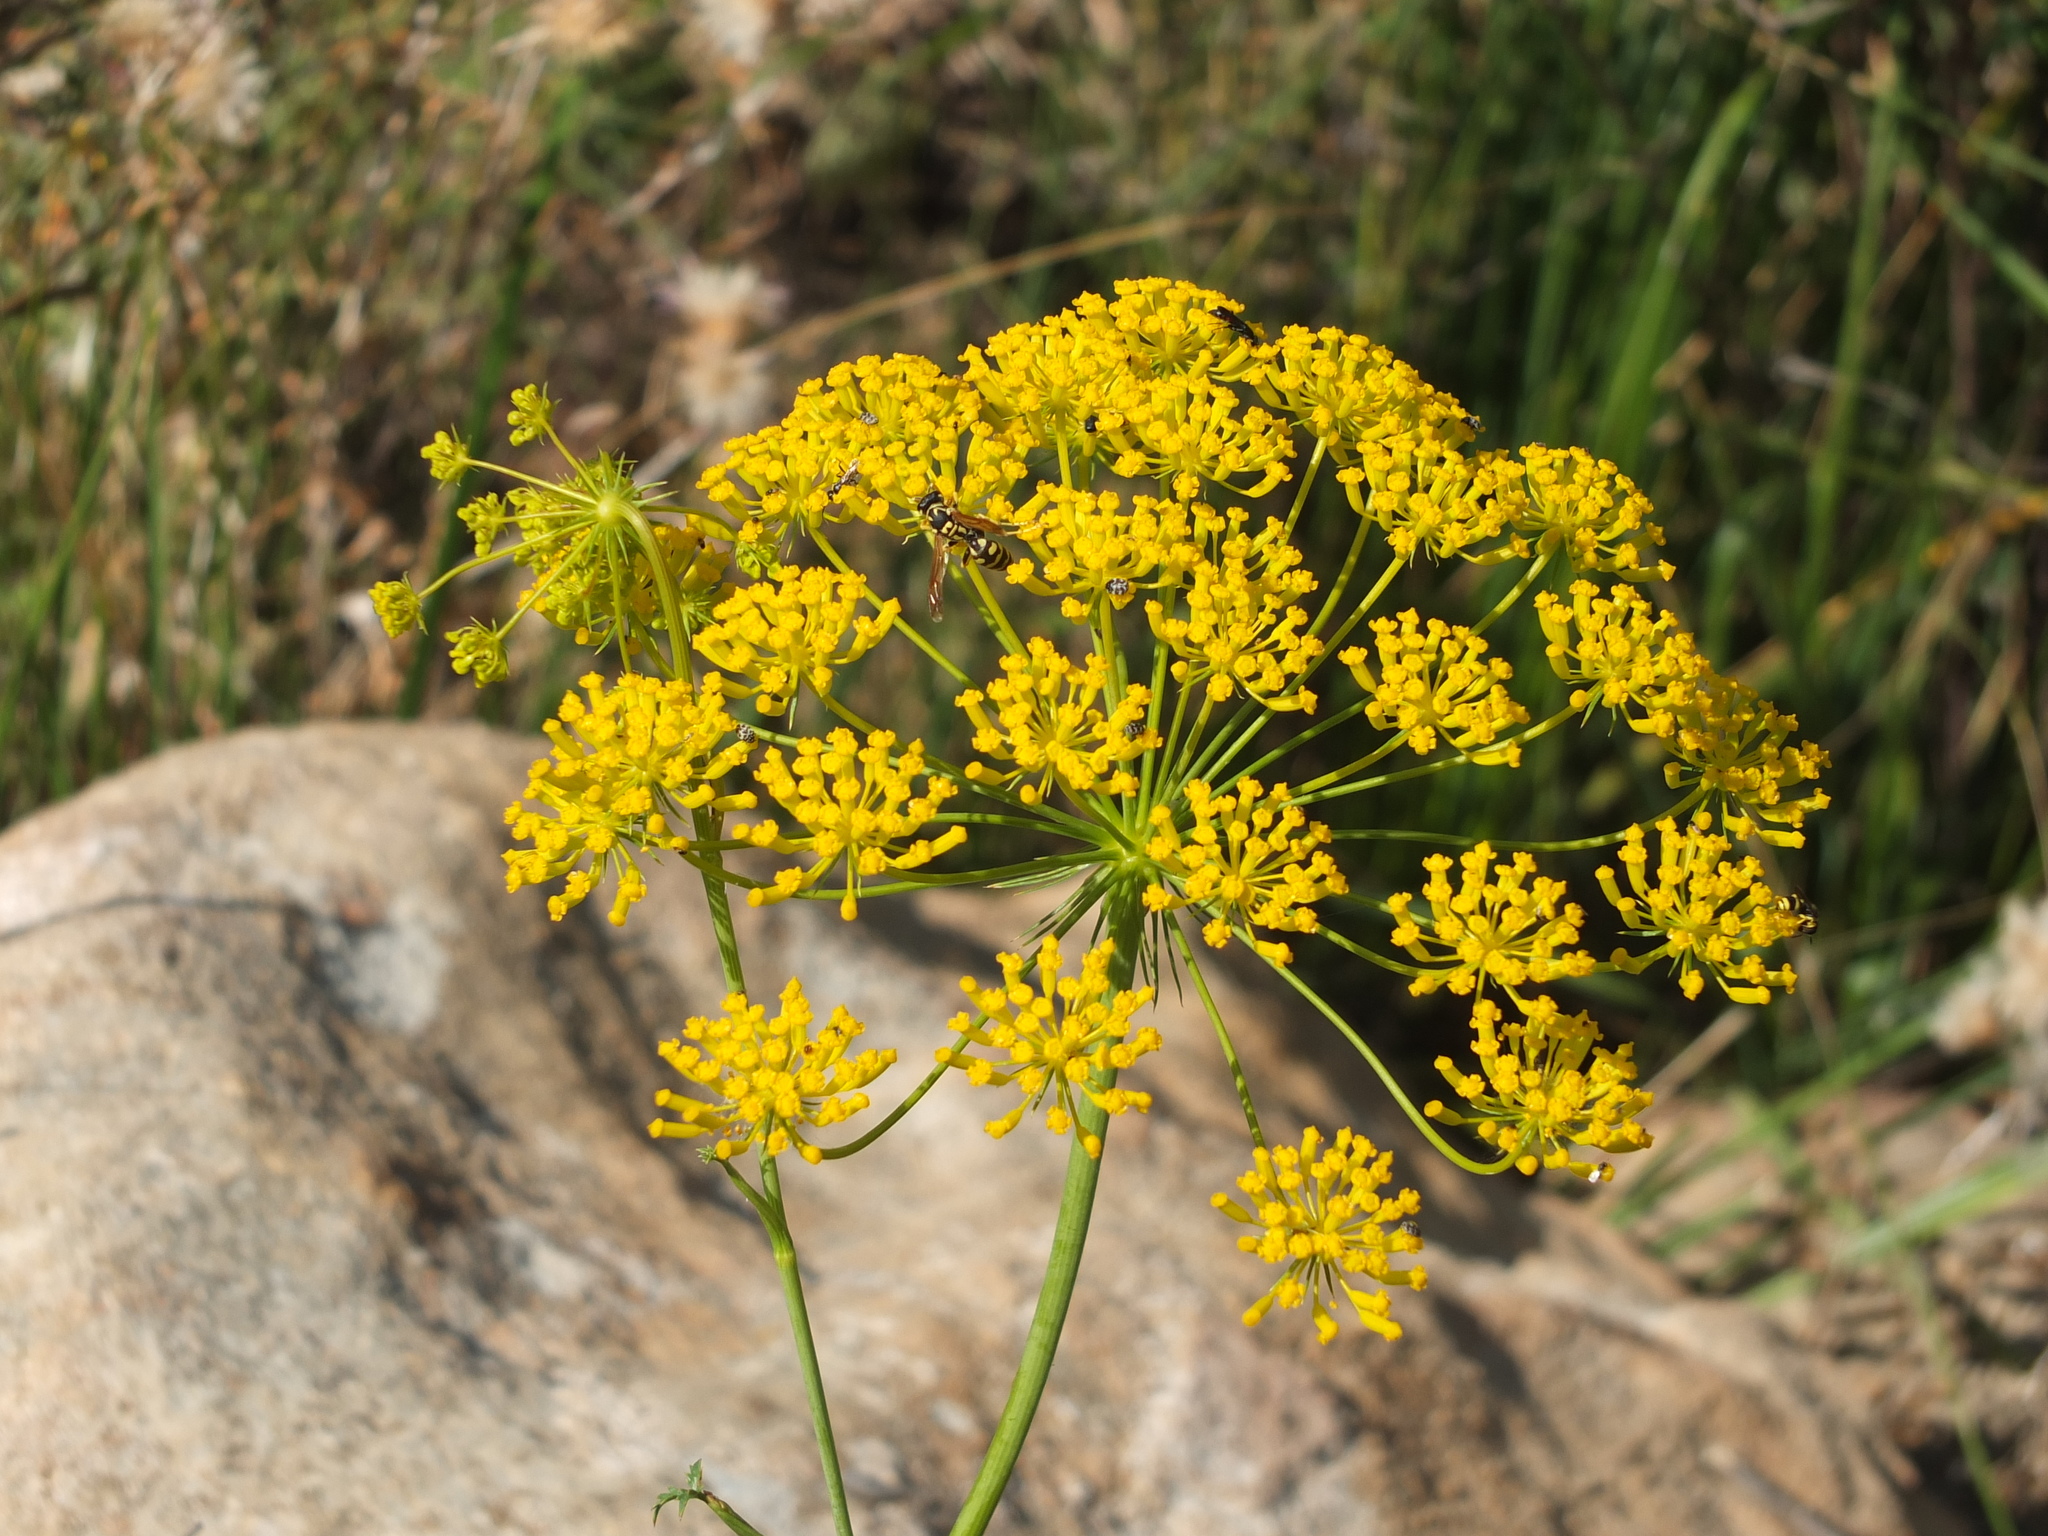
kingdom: Plantae
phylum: Tracheophyta
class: Magnoliopsida
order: Apiales
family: Apiaceae
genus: Kundmannia
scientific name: Kundmannia sicula
